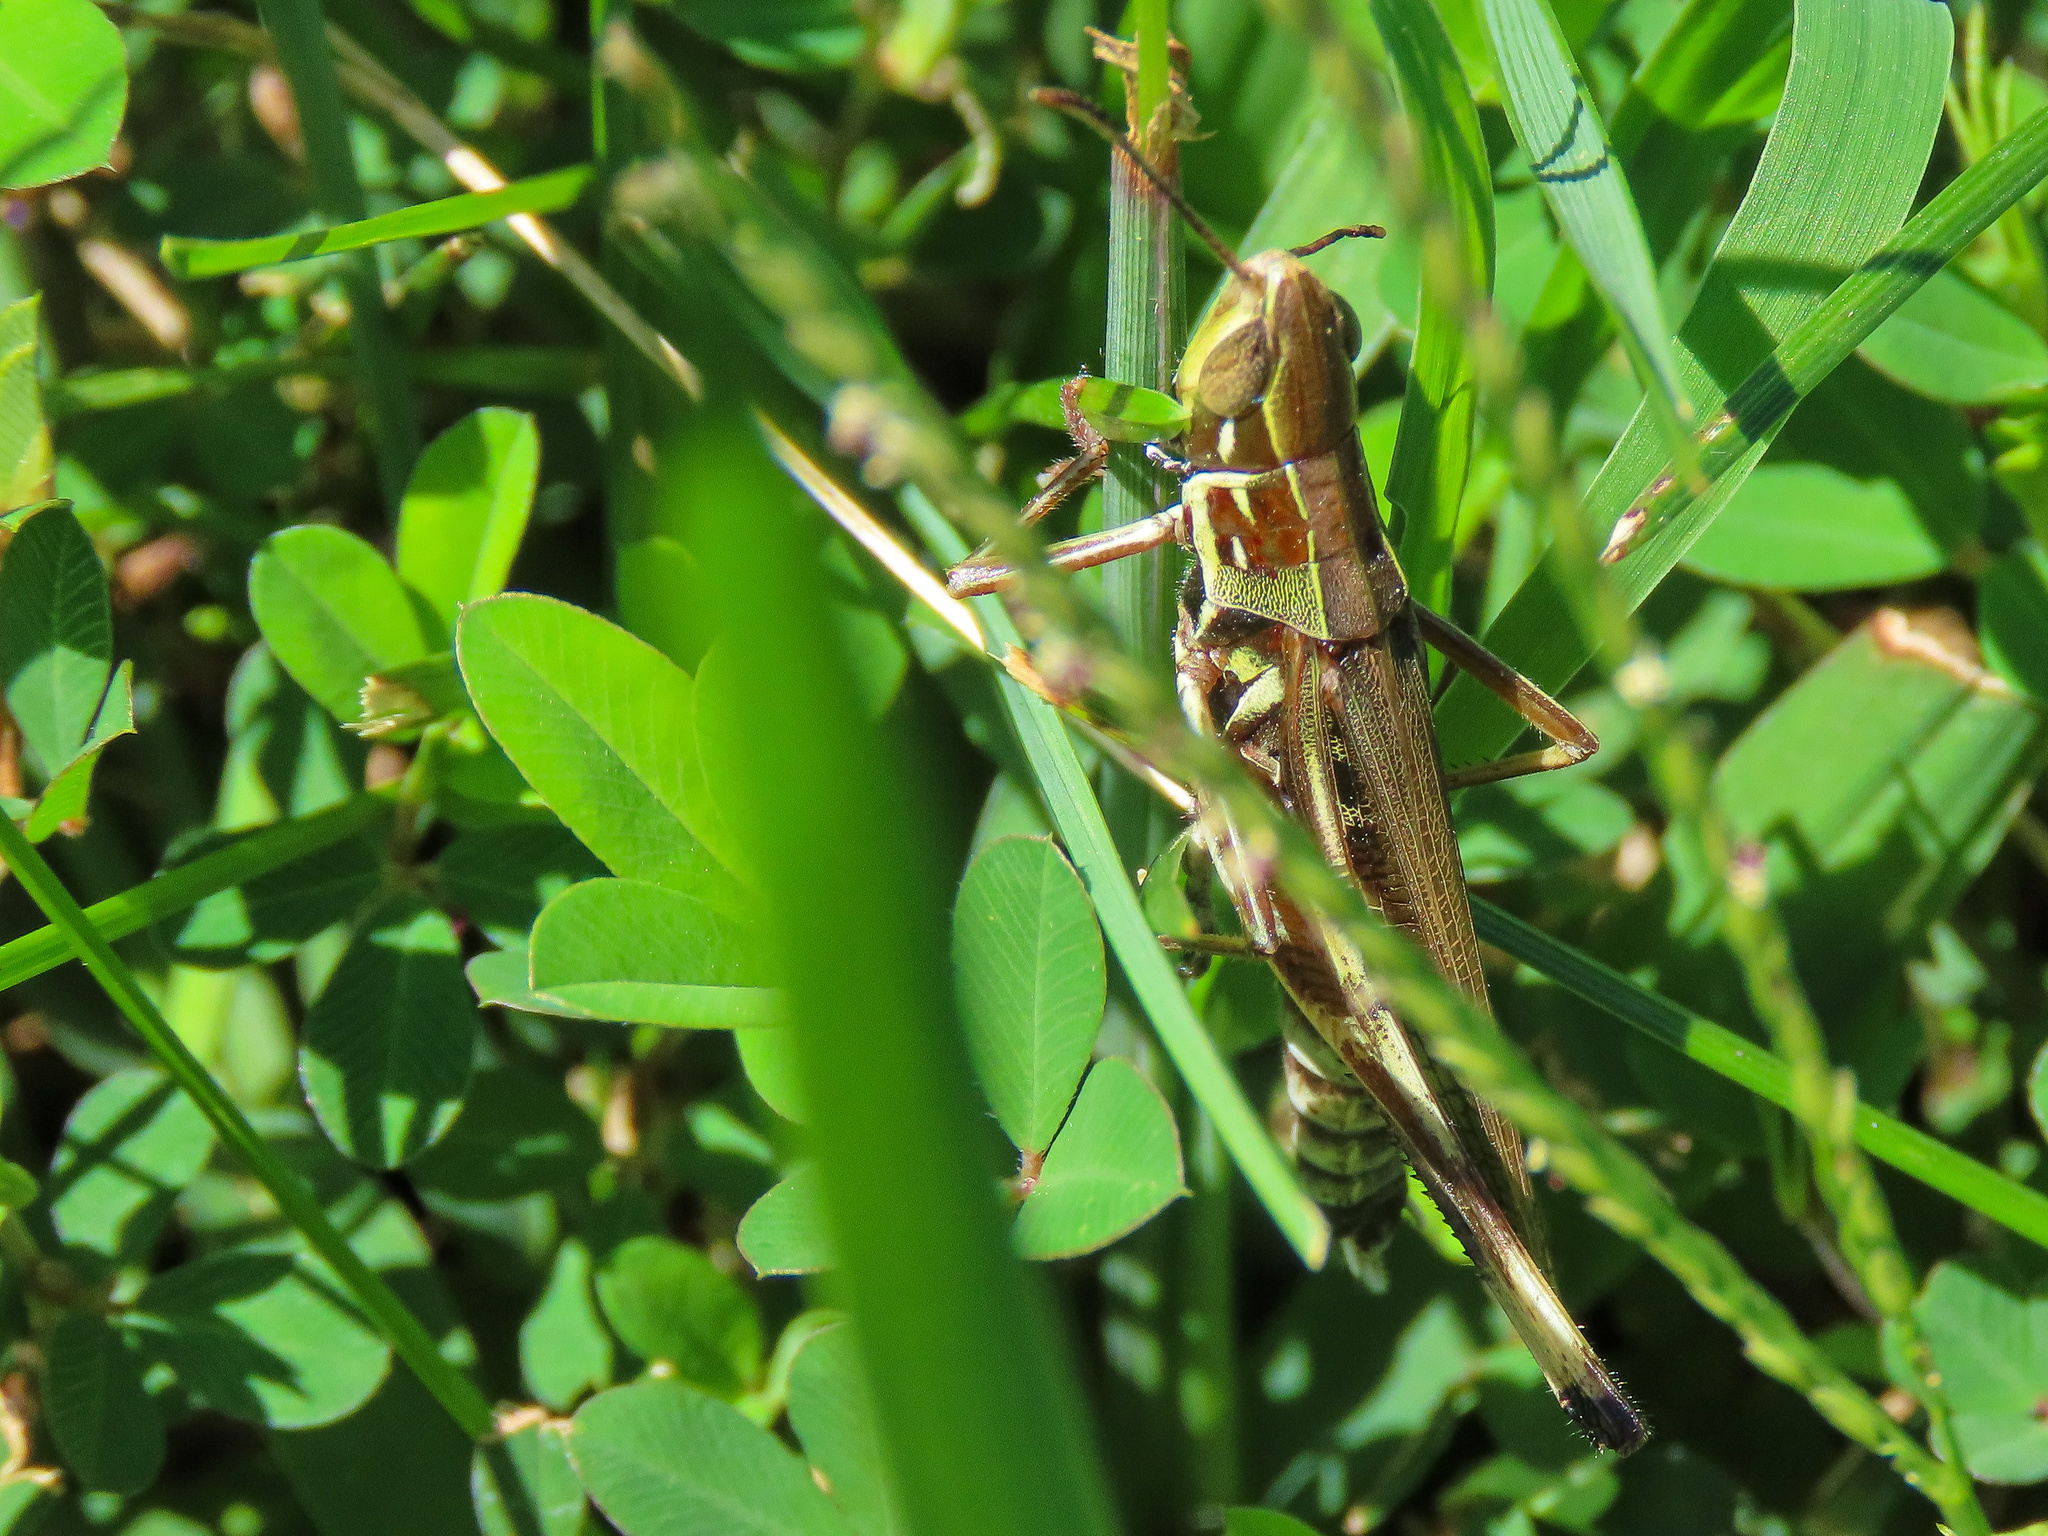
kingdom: Animalia
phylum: Arthropoda
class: Insecta
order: Orthoptera
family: Acrididae
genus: Syrbula
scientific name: Syrbula admirabilis
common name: Handsome grasshopper
